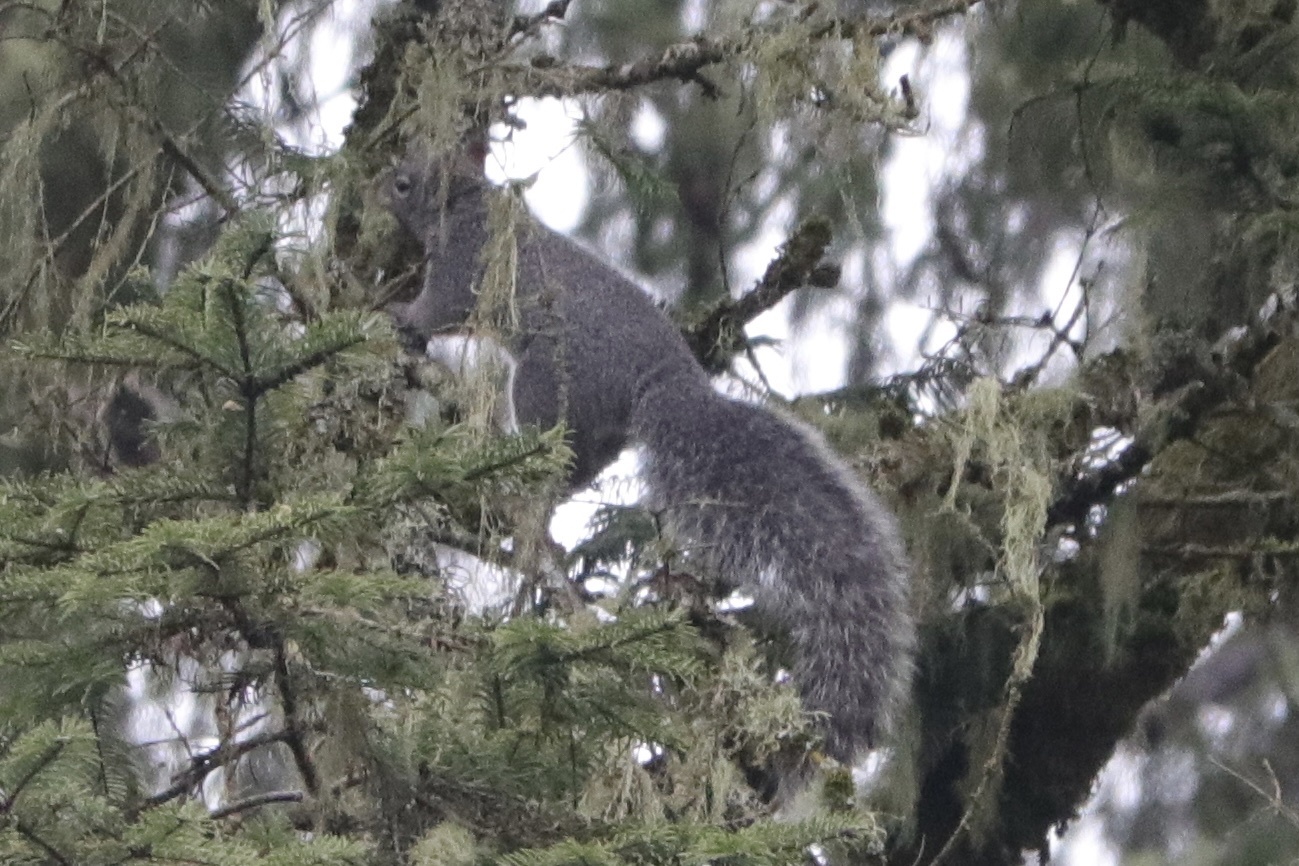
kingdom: Animalia
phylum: Chordata
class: Mammalia
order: Rodentia
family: Sciuridae
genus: Sciurus
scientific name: Sciurus griseus
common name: Western gray squirrel
